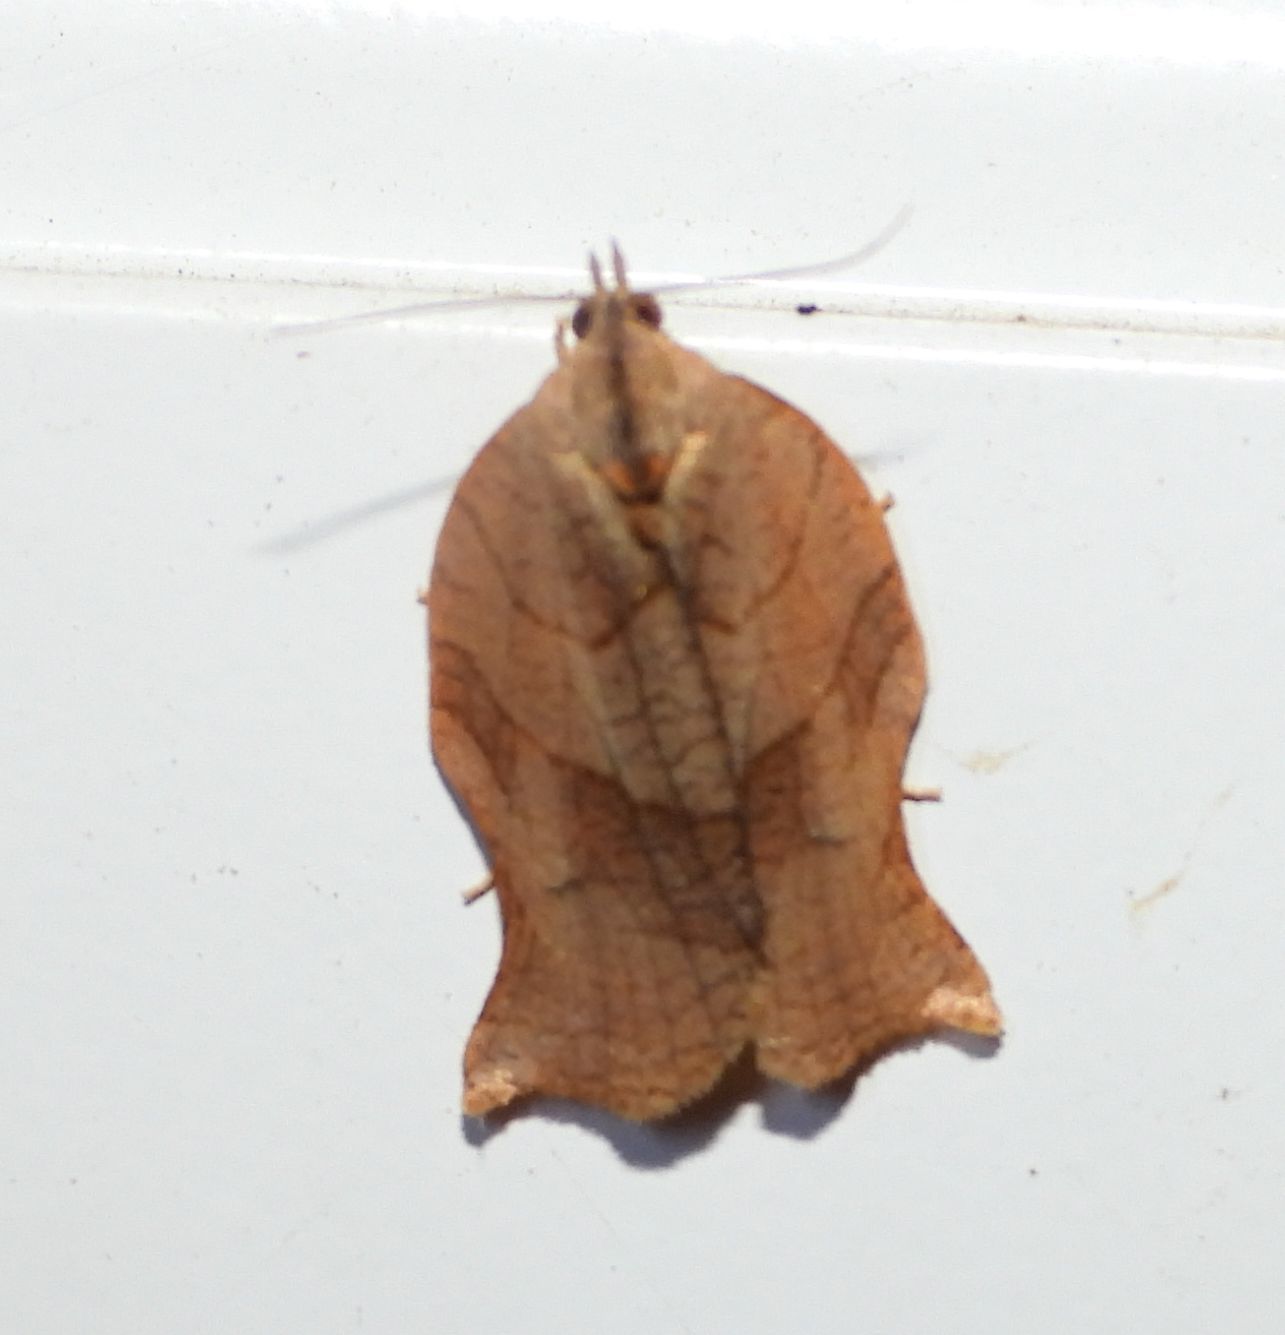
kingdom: Animalia
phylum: Arthropoda
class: Insecta
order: Lepidoptera
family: Tortricidae
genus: Archips
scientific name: Archips purpurana
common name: Omnivorous leafroller
